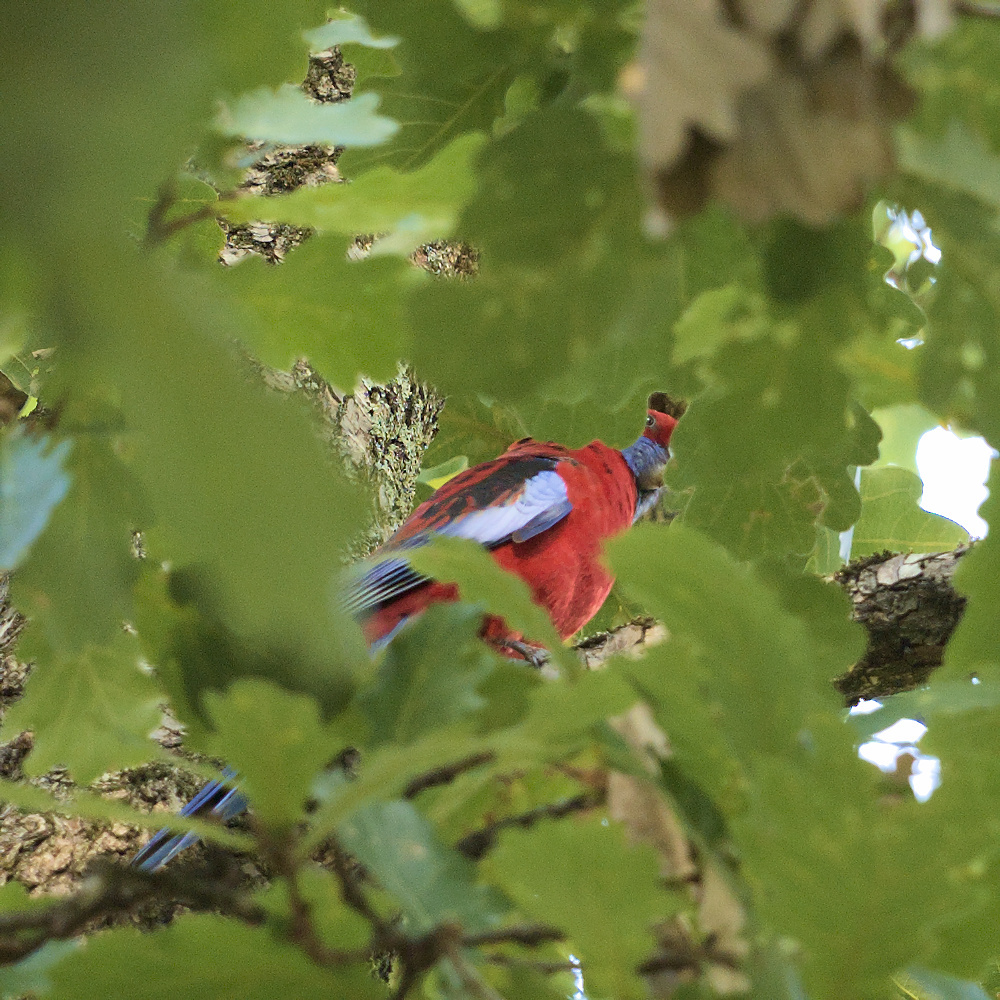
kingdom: Animalia
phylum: Chordata
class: Aves
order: Psittaciformes
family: Psittacidae
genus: Platycercus
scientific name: Platycercus elegans
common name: Crimson rosella
